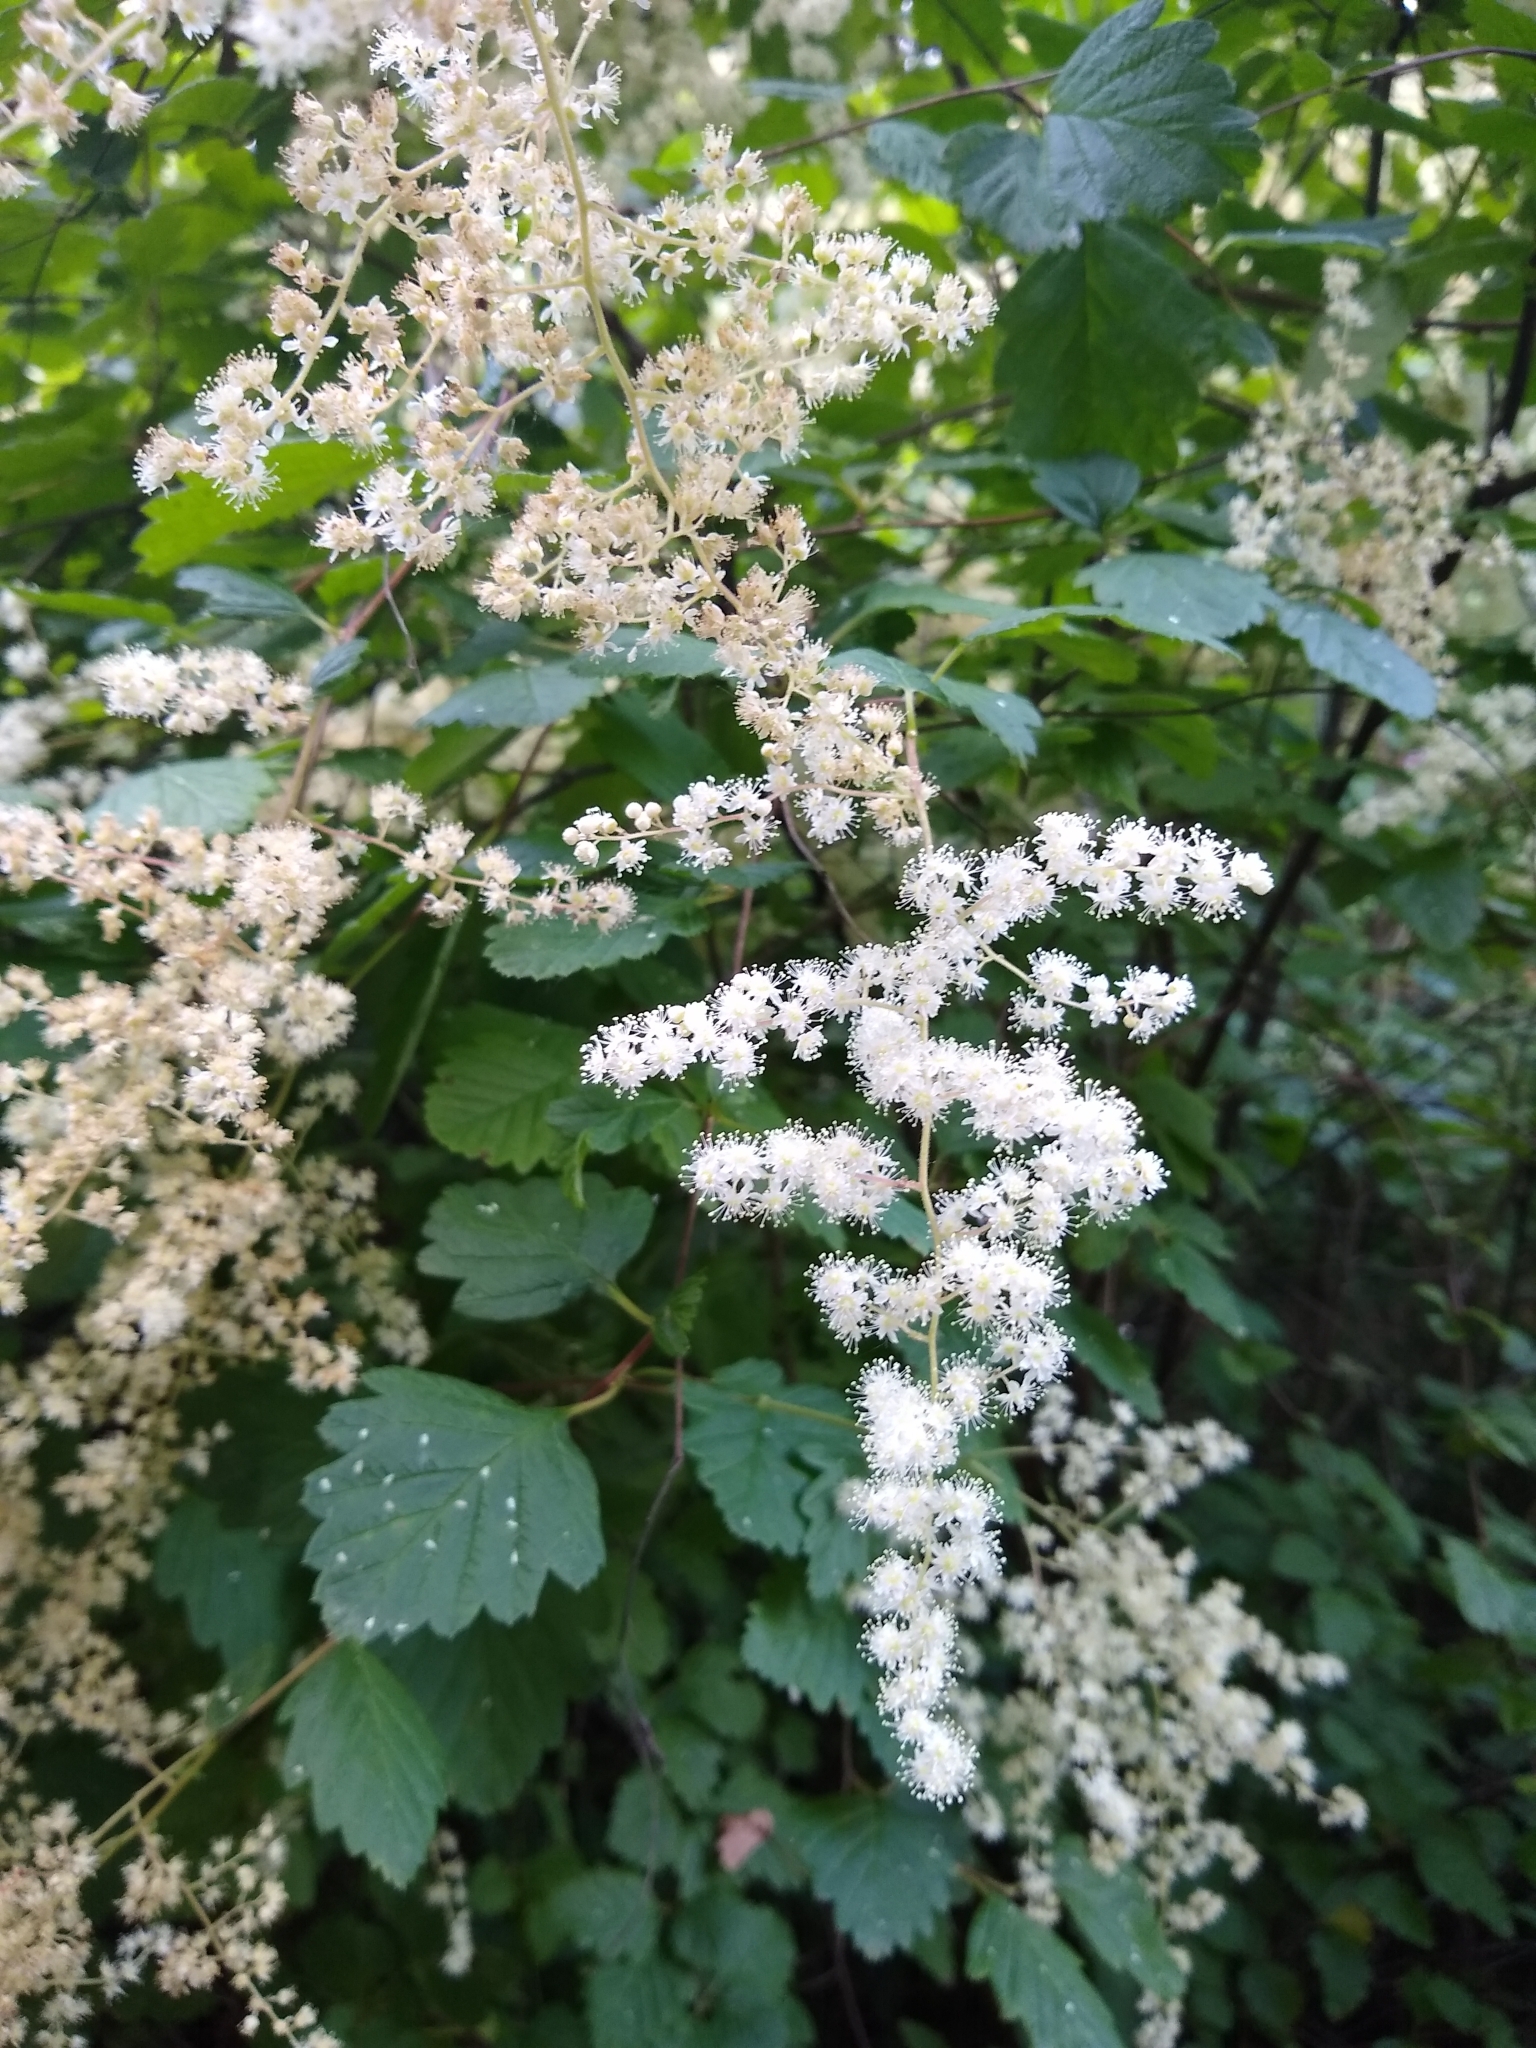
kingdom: Plantae
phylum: Tracheophyta
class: Magnoliopsida
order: Rosales
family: Rosaceae
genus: Holodiscus
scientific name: Holodiscus discolor
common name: Oceanspray
